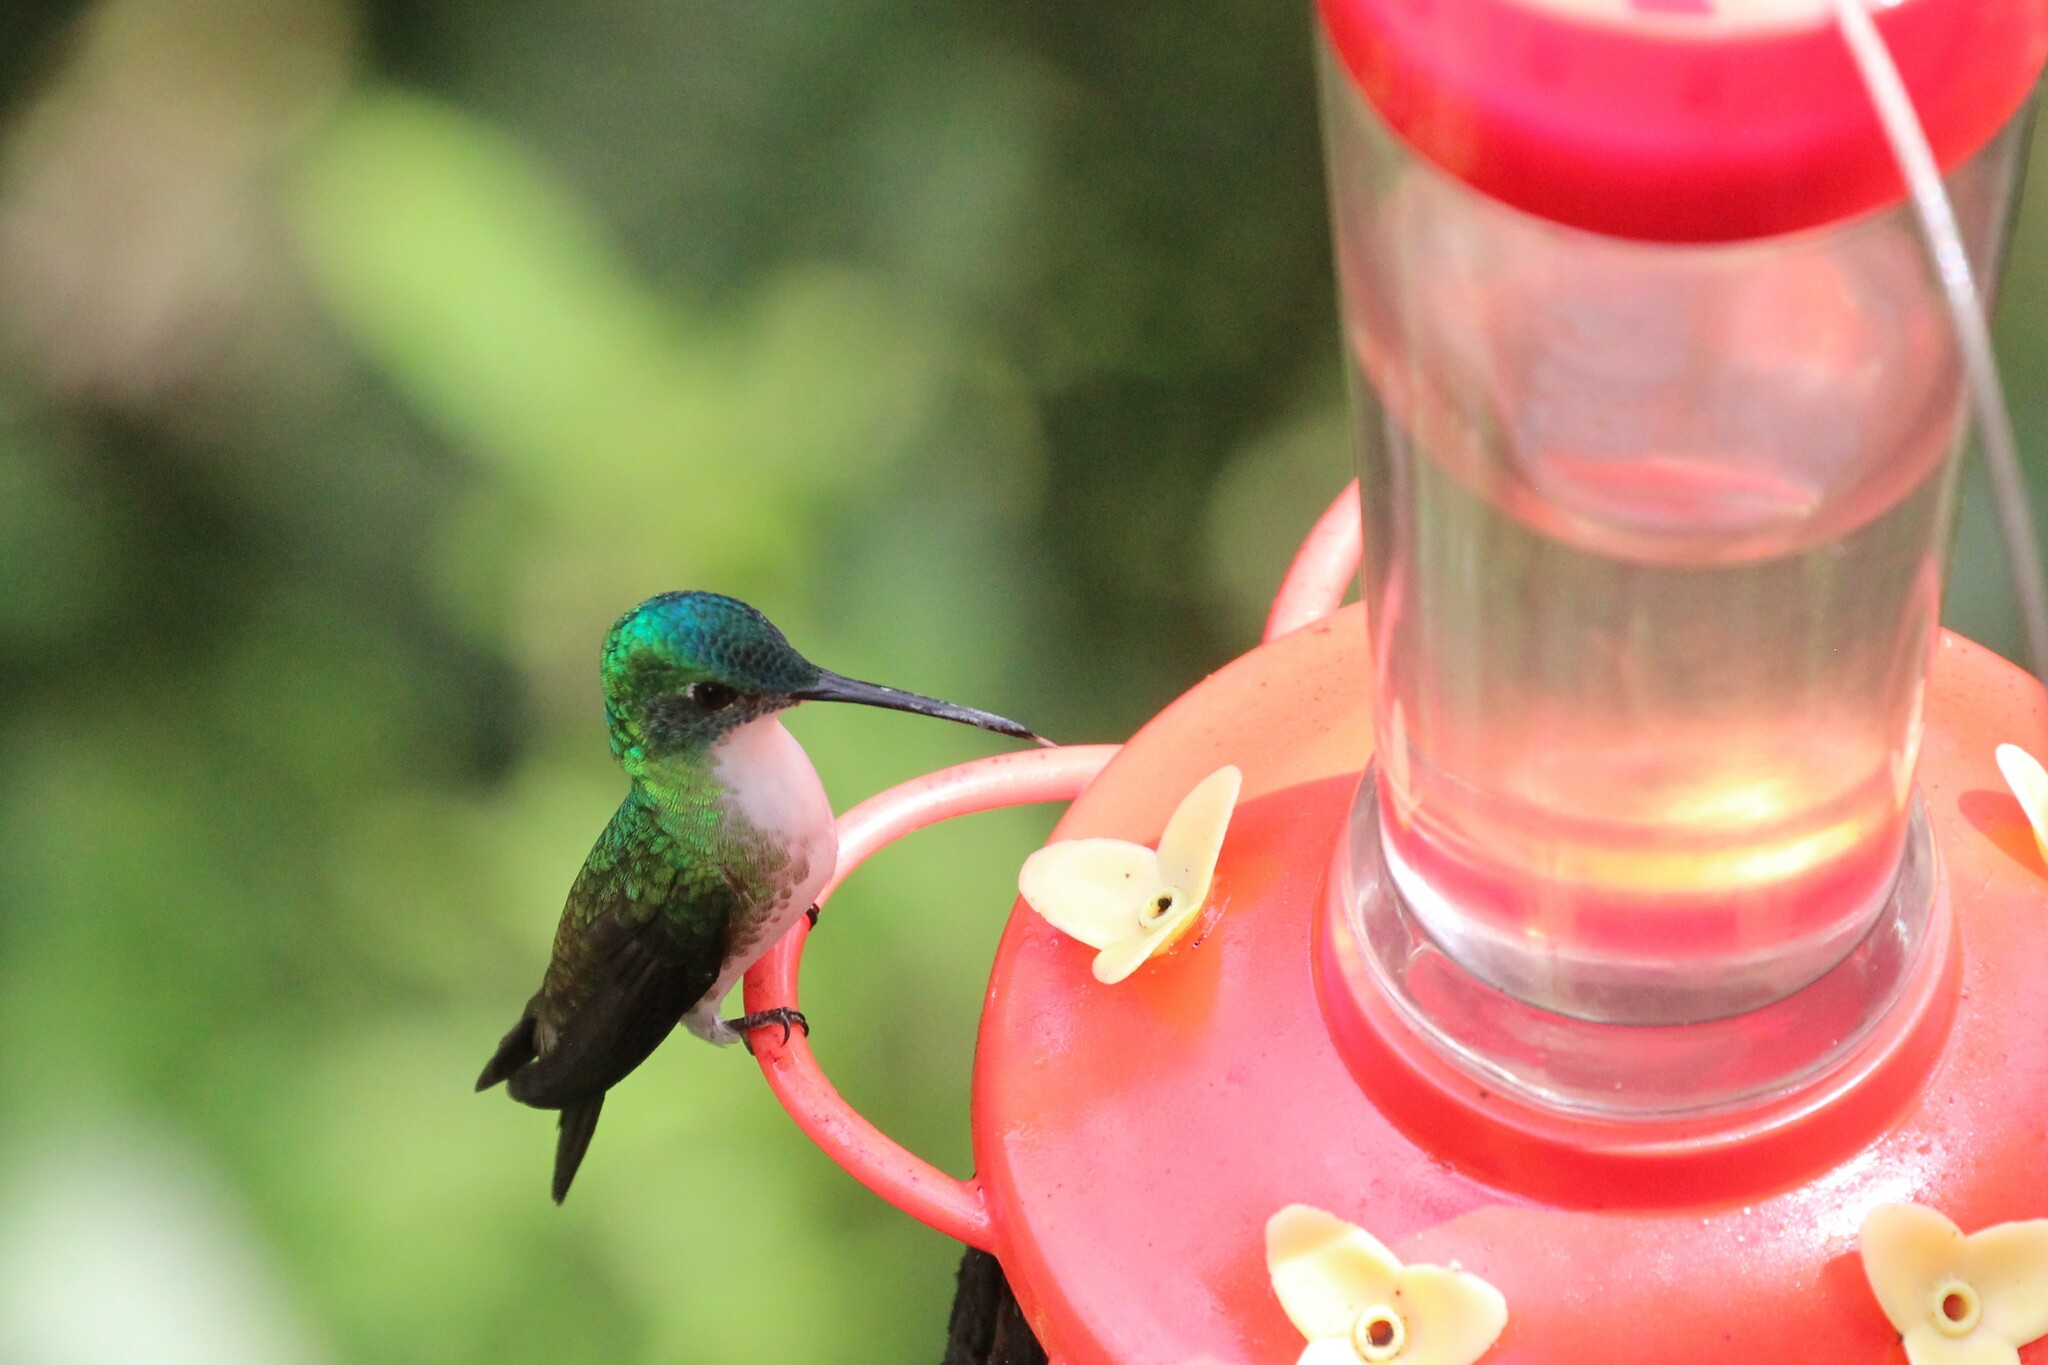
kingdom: Animalia
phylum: Chordata
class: Aves
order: Apodiformes
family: Trochilidae
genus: Uranomitra
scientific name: Uranomitra franciae
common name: Andean emerald
